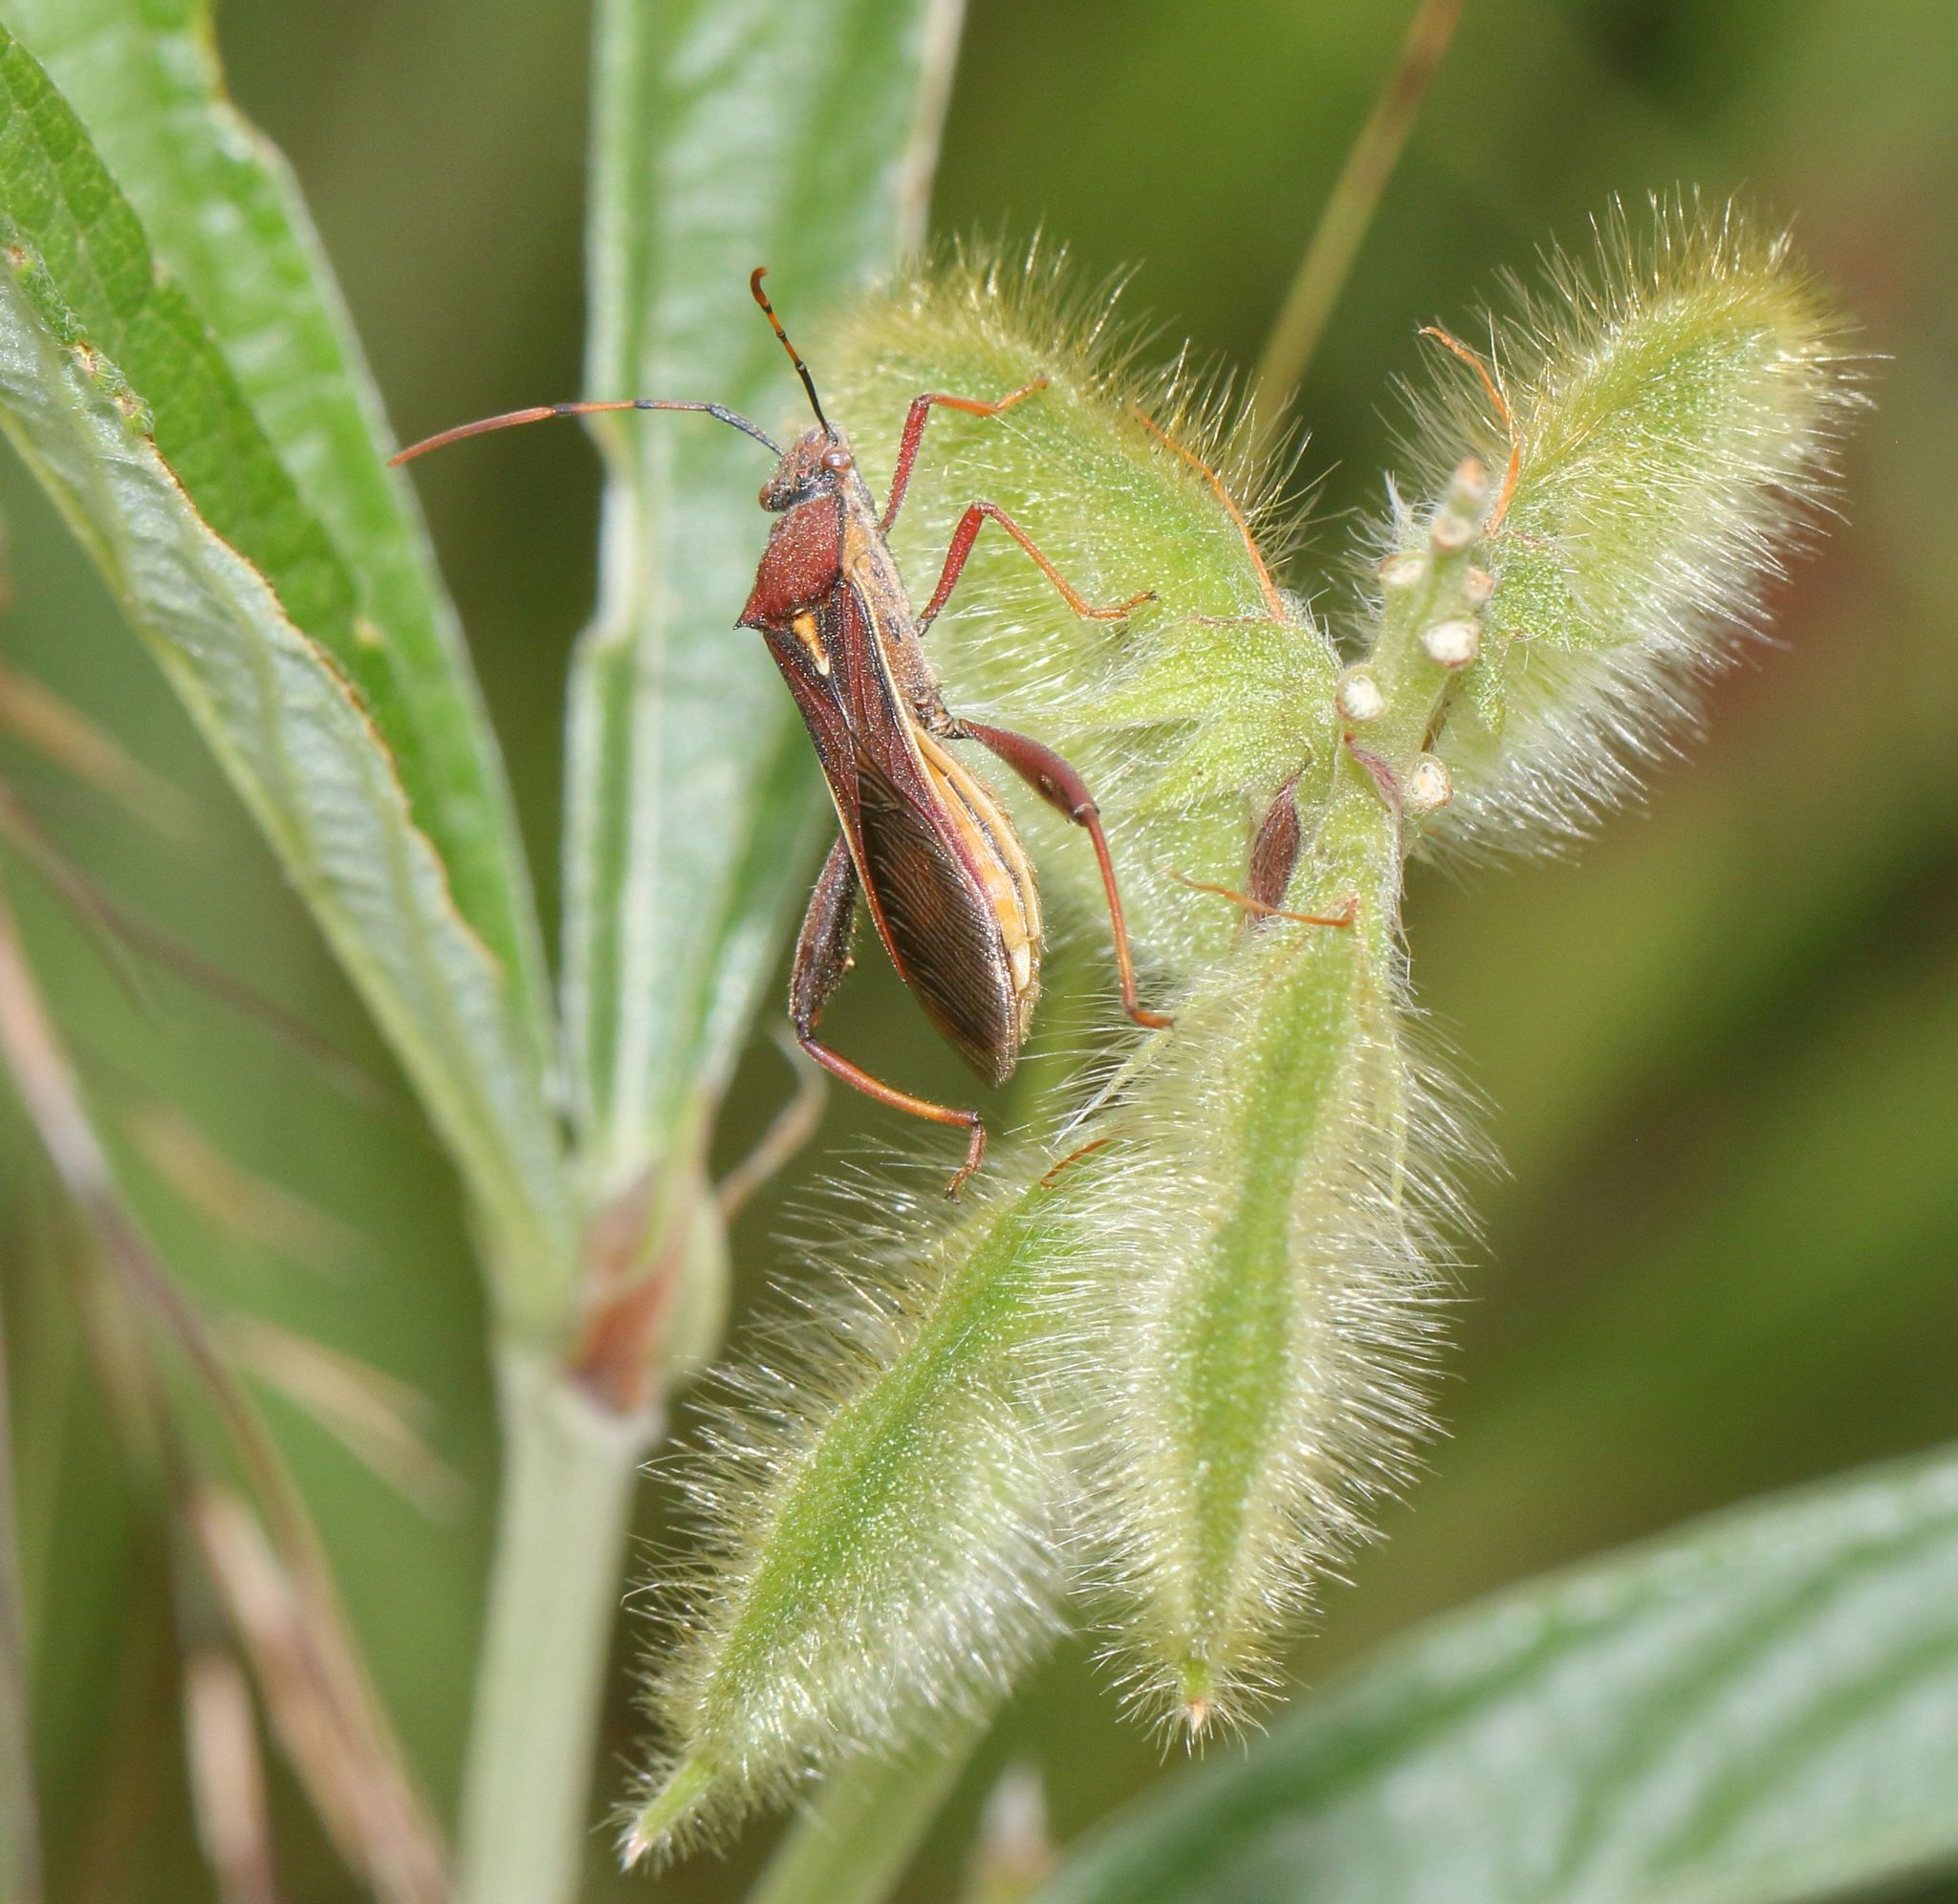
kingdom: Animalia
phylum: Arthropoda
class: Insecta
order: Hemiptera
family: Alydidae
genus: Mirperus
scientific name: Mirperus jaculus
